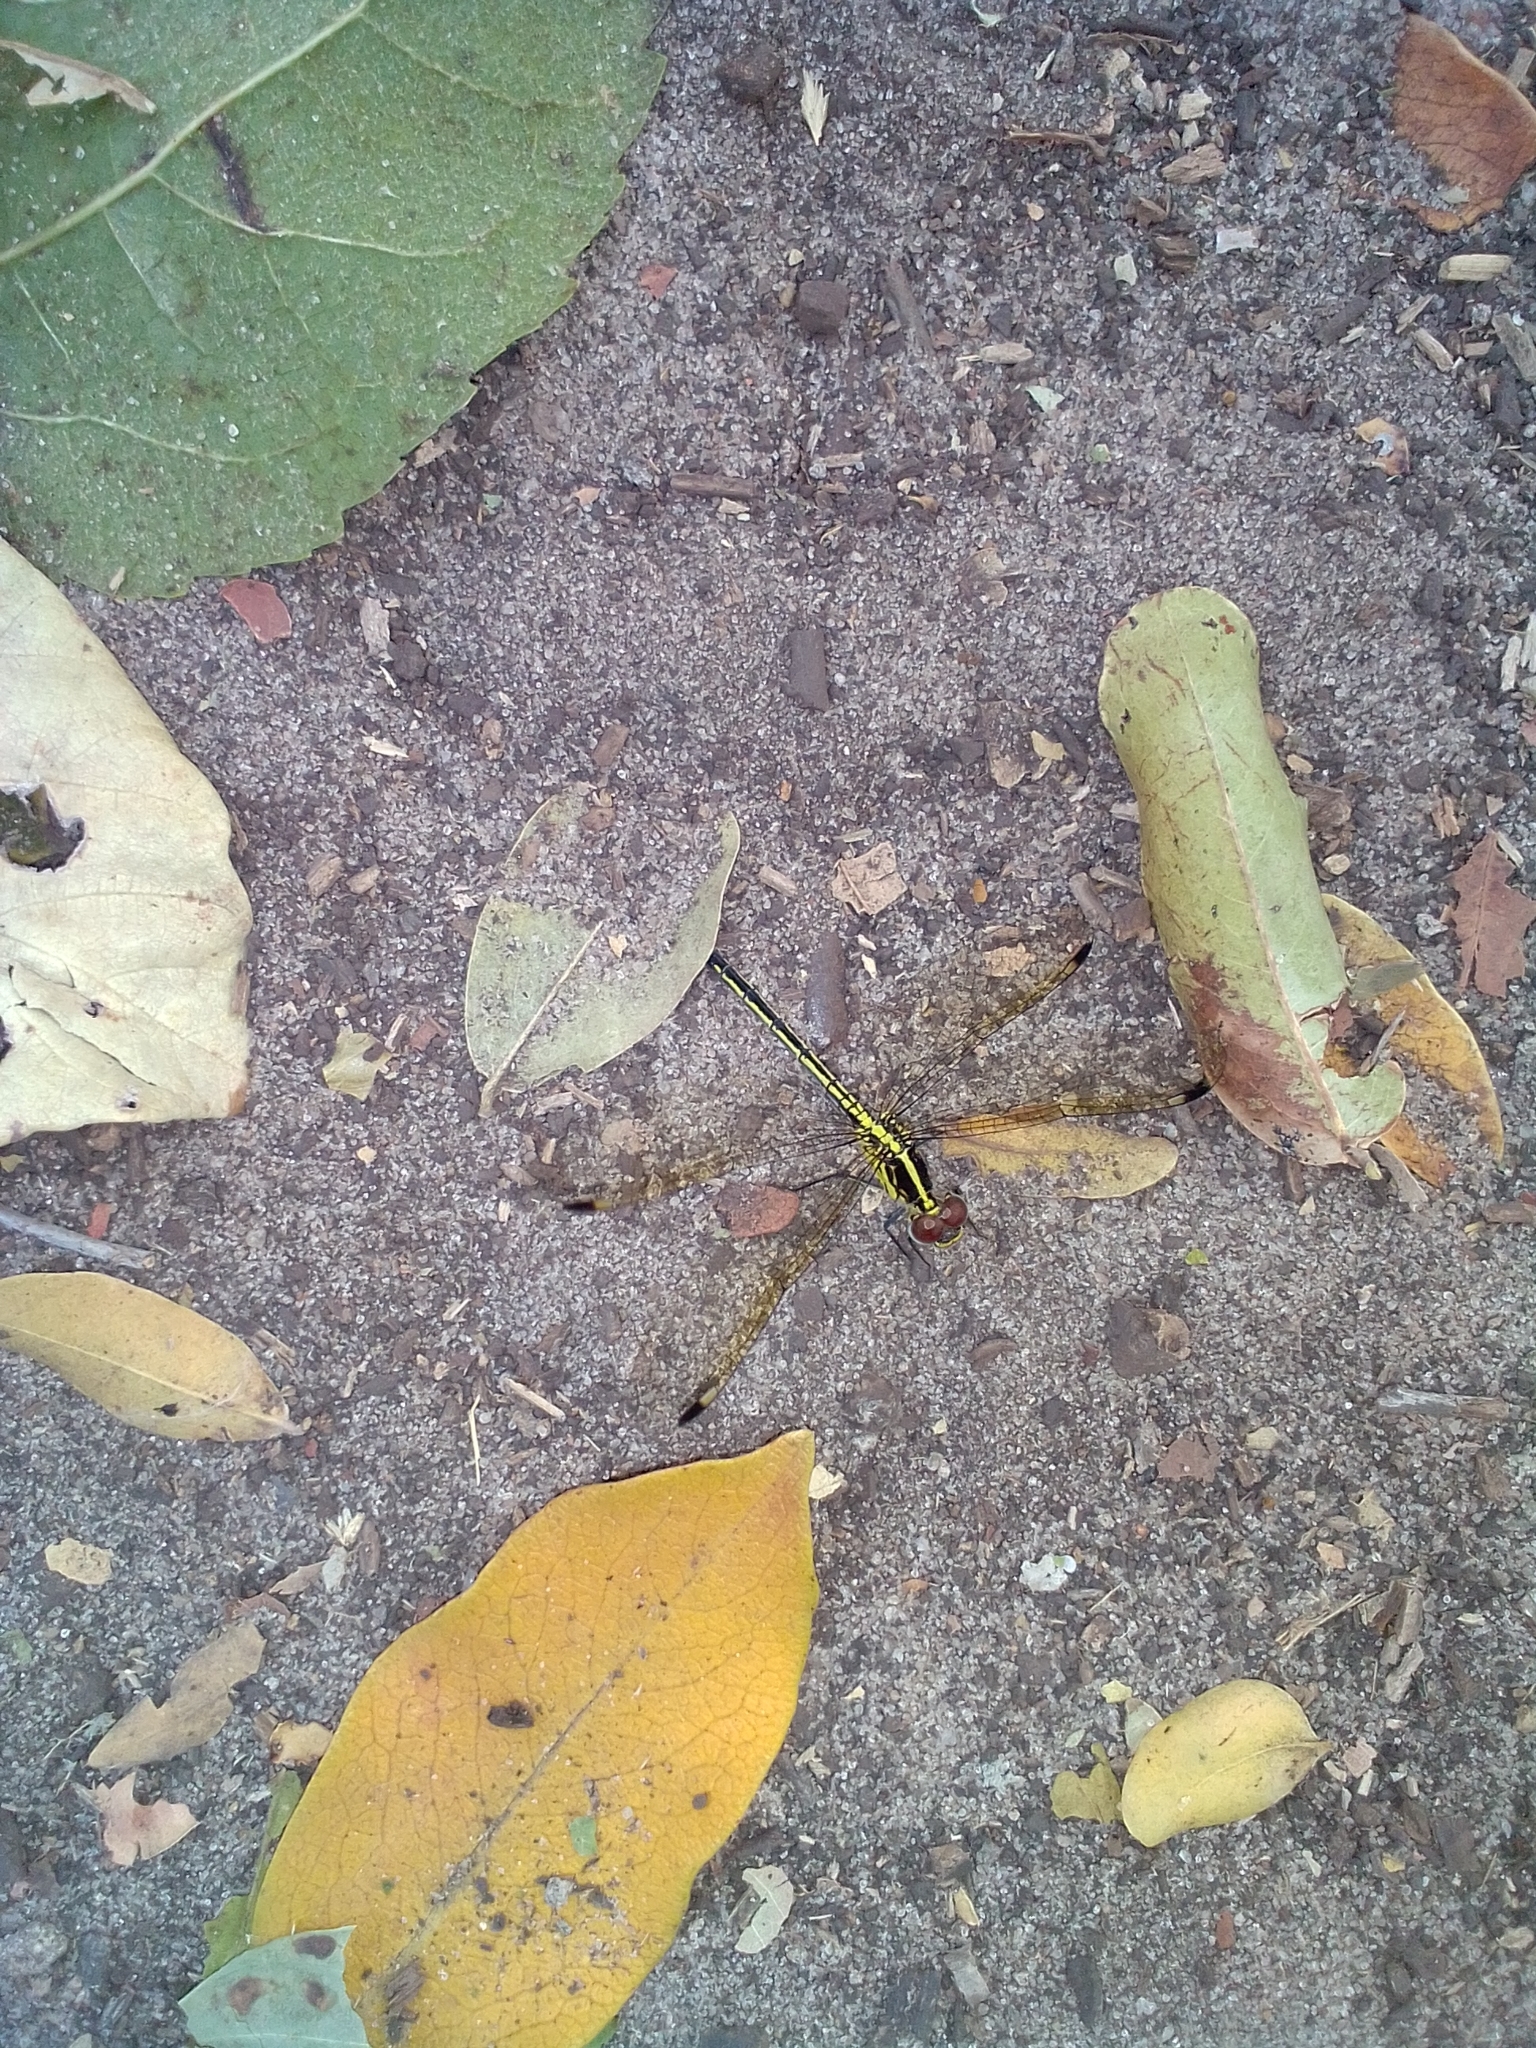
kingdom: Animalia
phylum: Arthropoda
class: Insecta
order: Odonata
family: Libellulidae
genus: Hemistigma
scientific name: Hemistigma albipunctum
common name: African pied-spot
